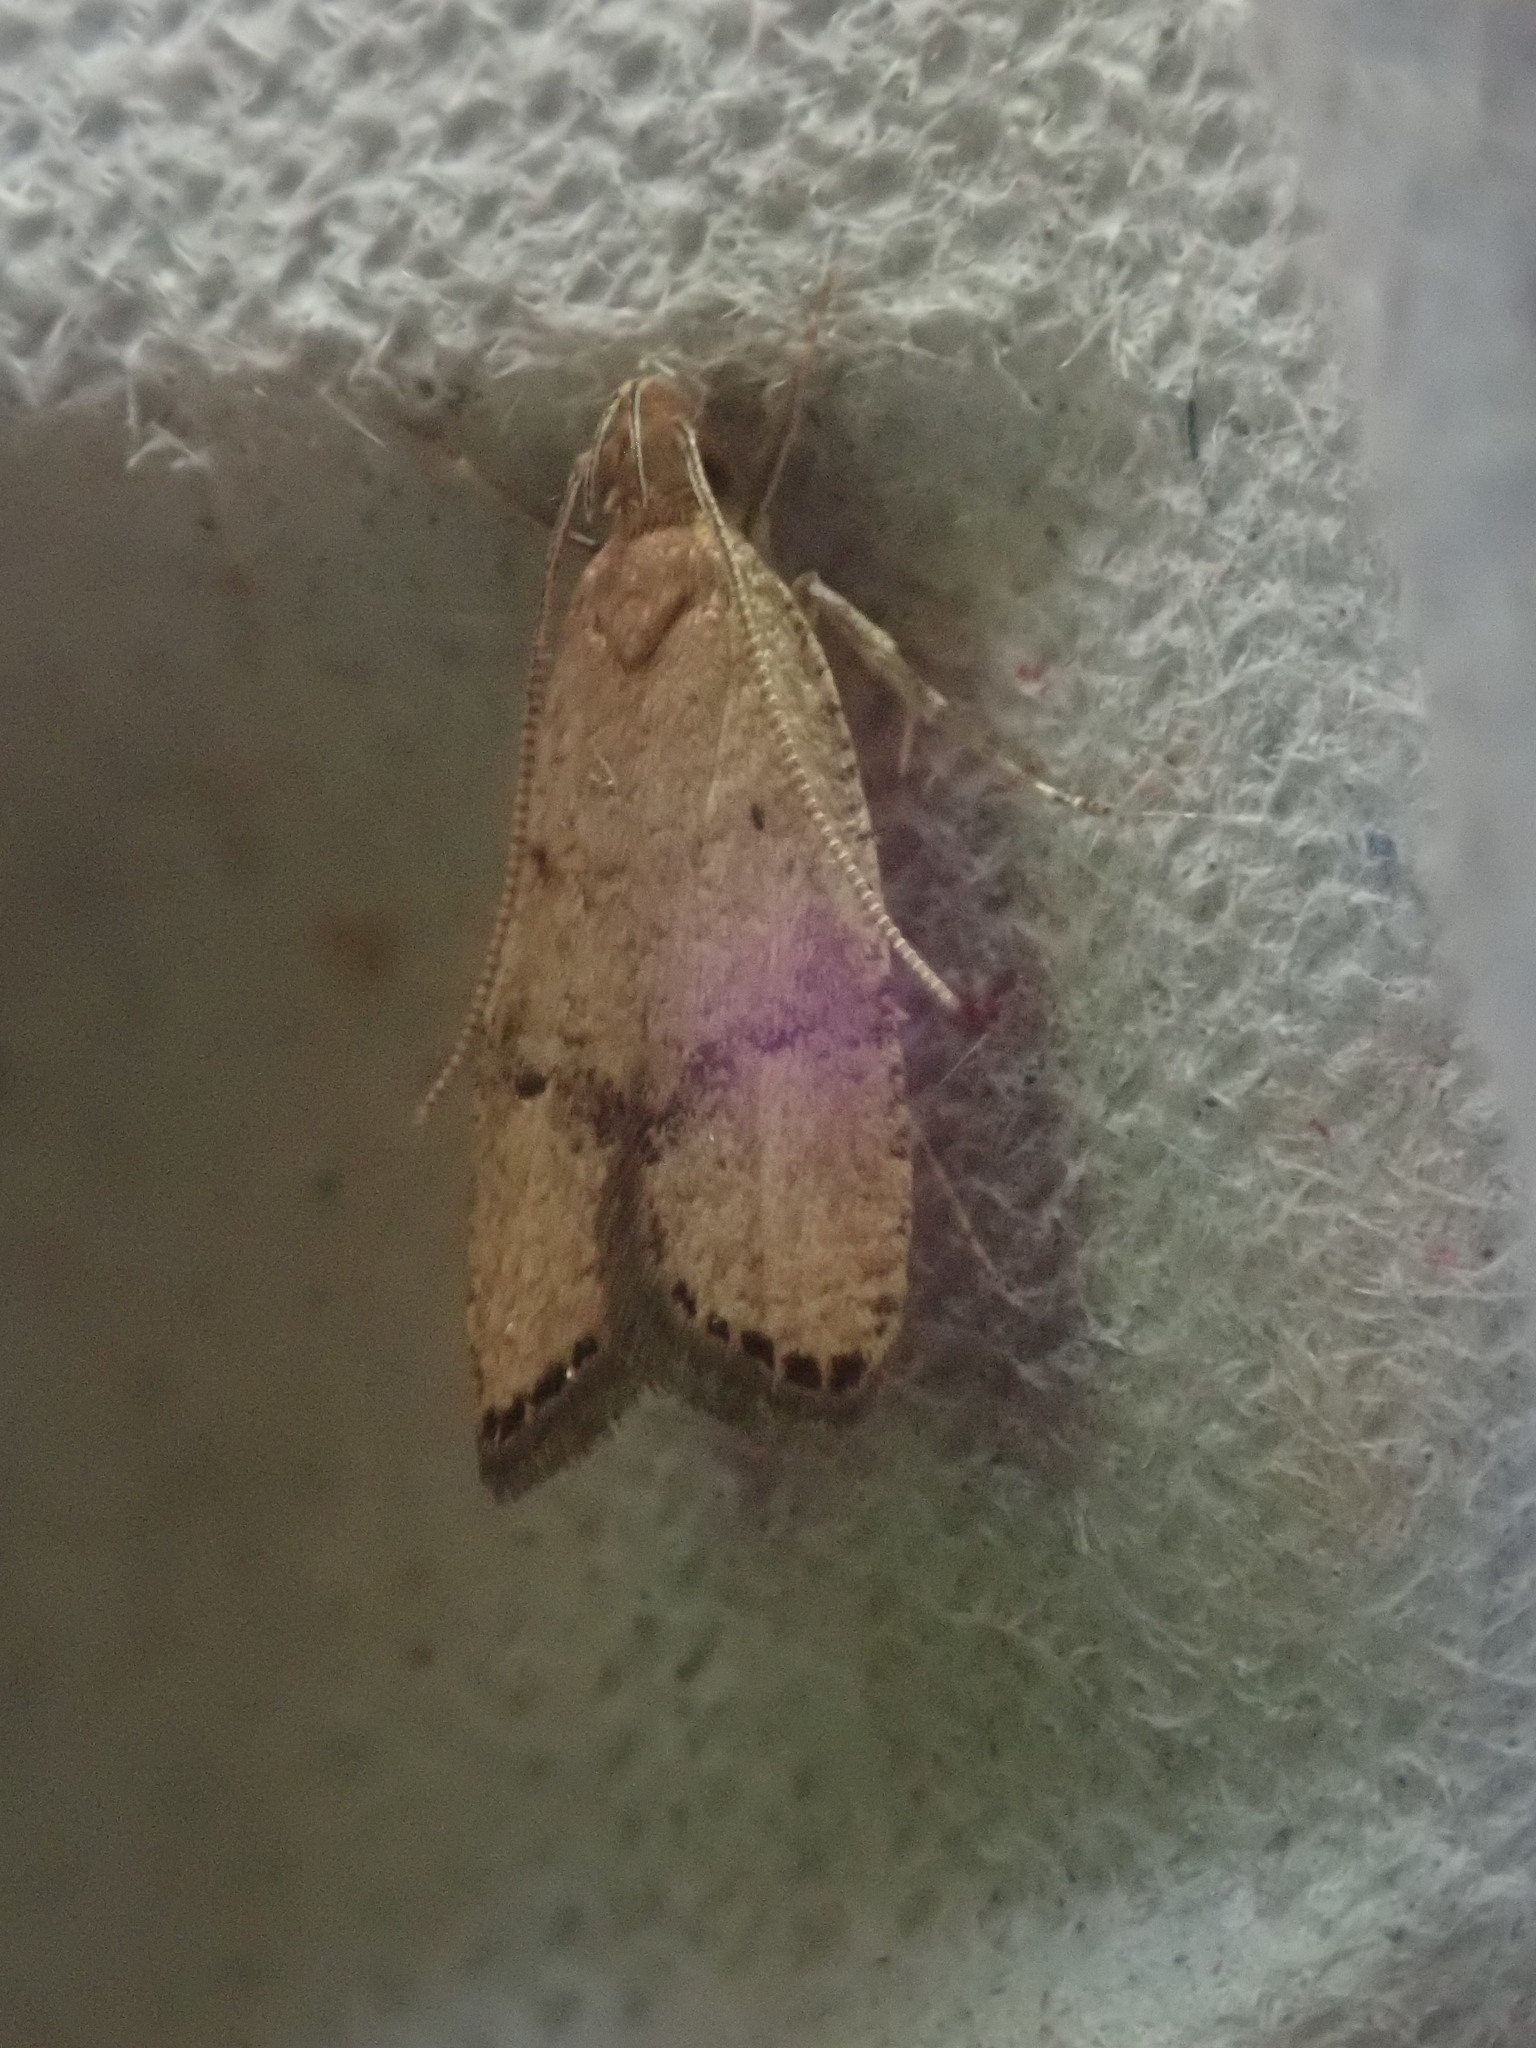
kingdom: Animalia
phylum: Arthropoda
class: Insecta
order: Lepidoptera
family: Depressariidae
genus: Psilocorsis
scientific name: Psilocorsis quercicella
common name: Oak leaftier moth
